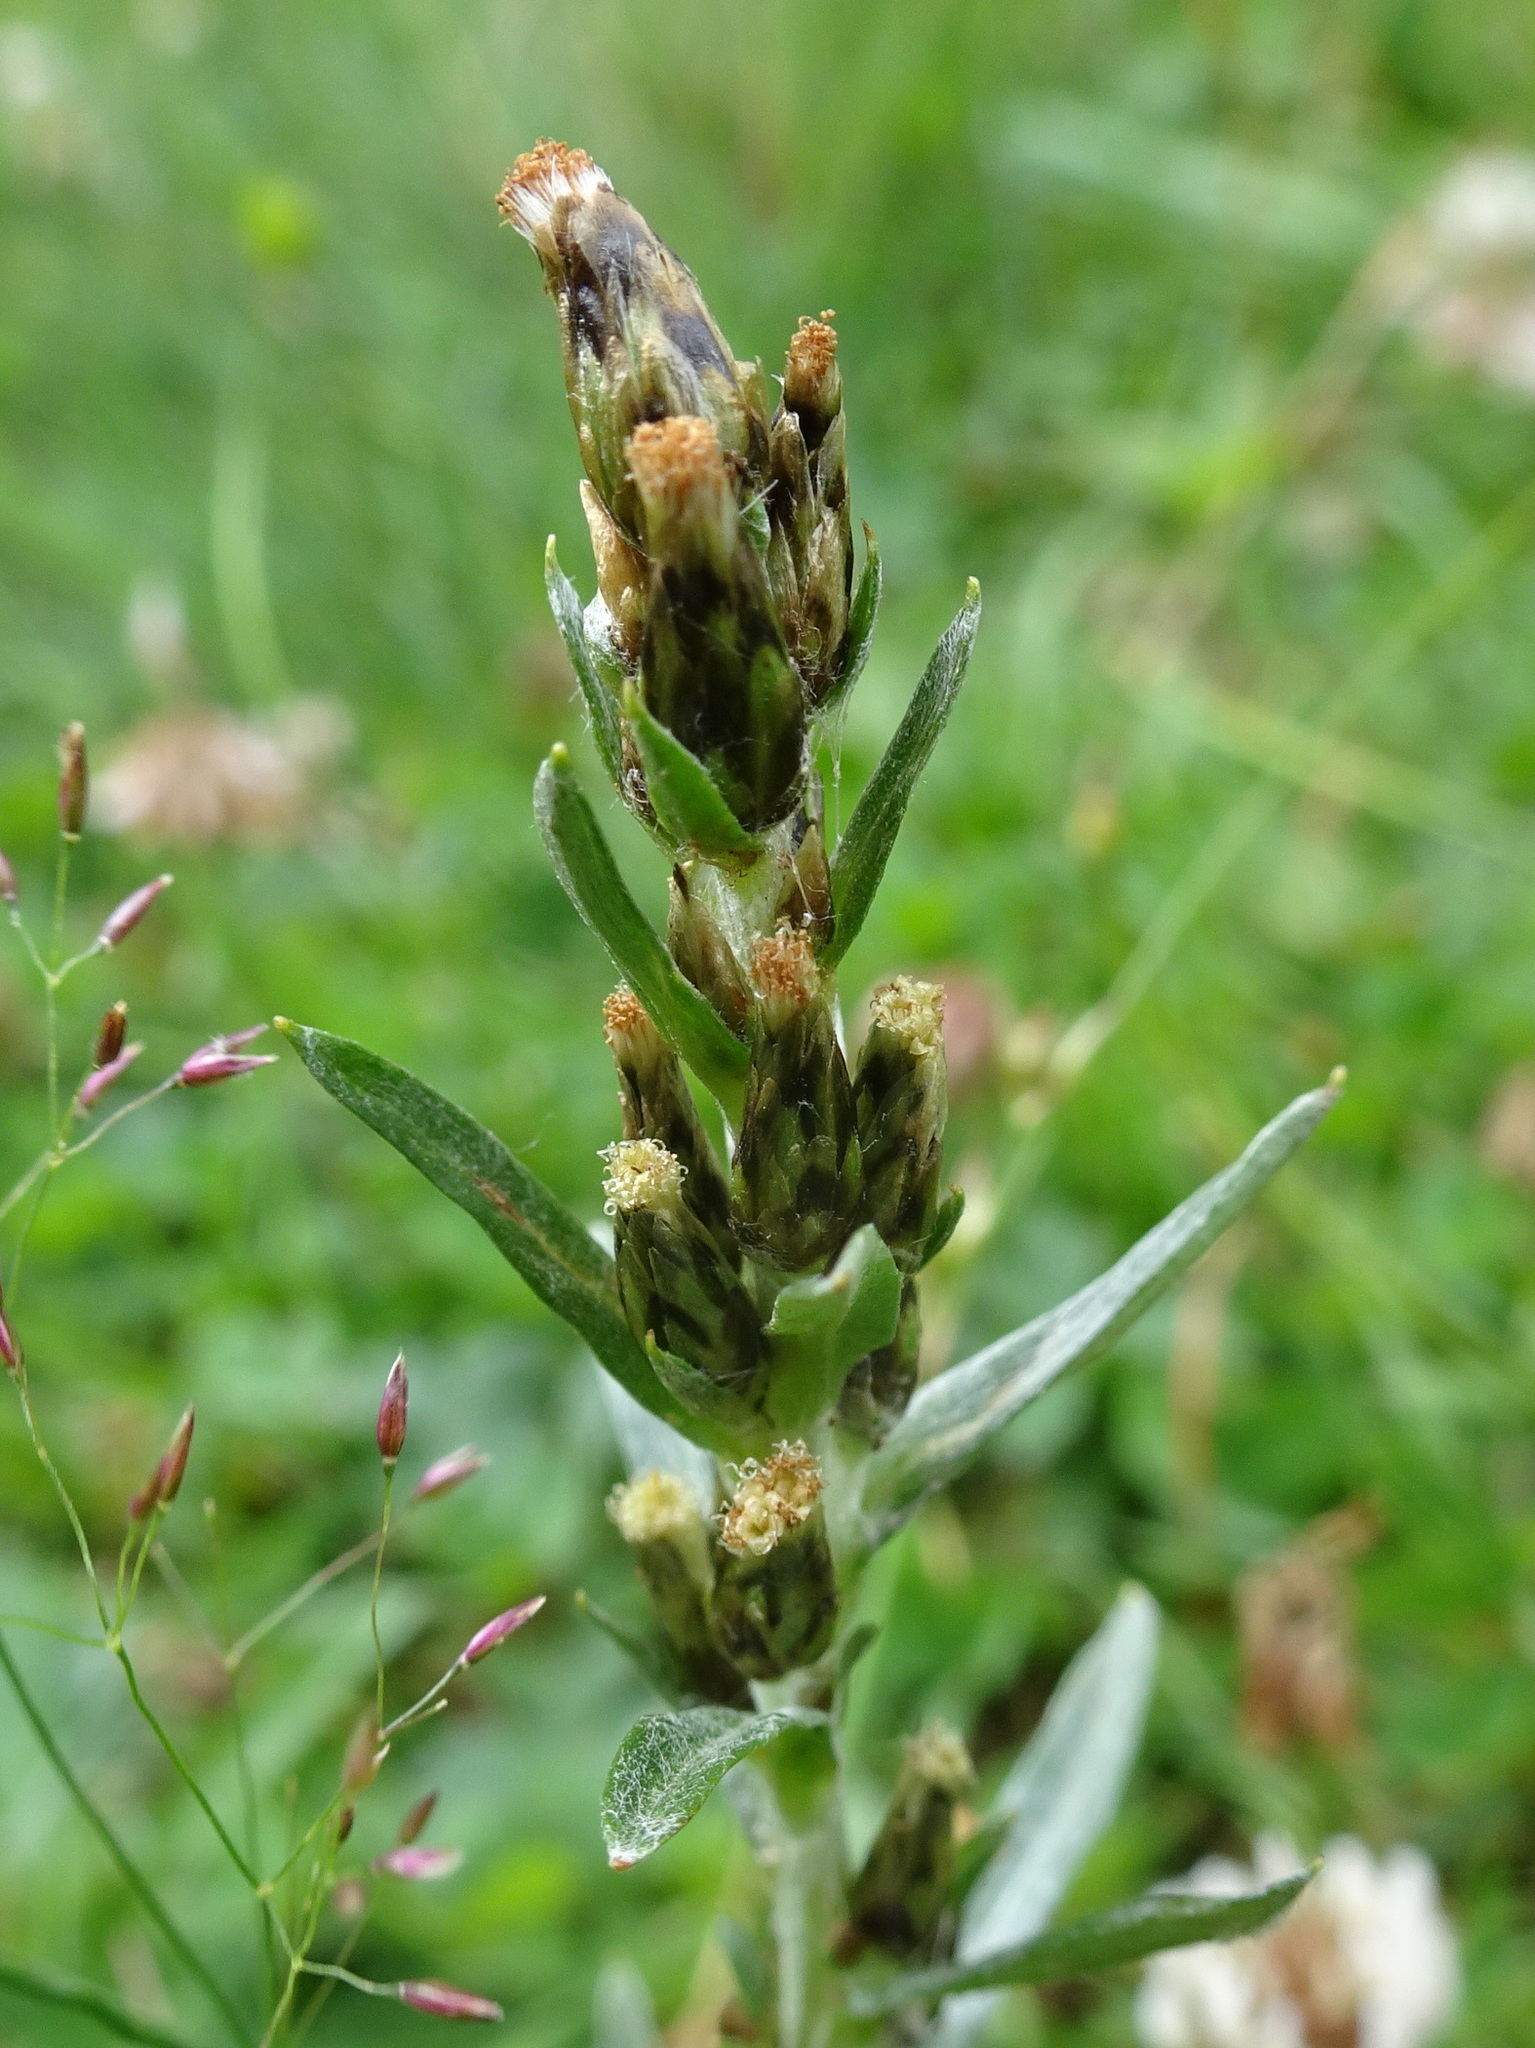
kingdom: Plantae
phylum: Tracheophyta
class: Magnoliopsida
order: Asterales
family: Asteraceae
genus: Omalotheca
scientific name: Omalotheca sylvatica
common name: Heath cudweed
